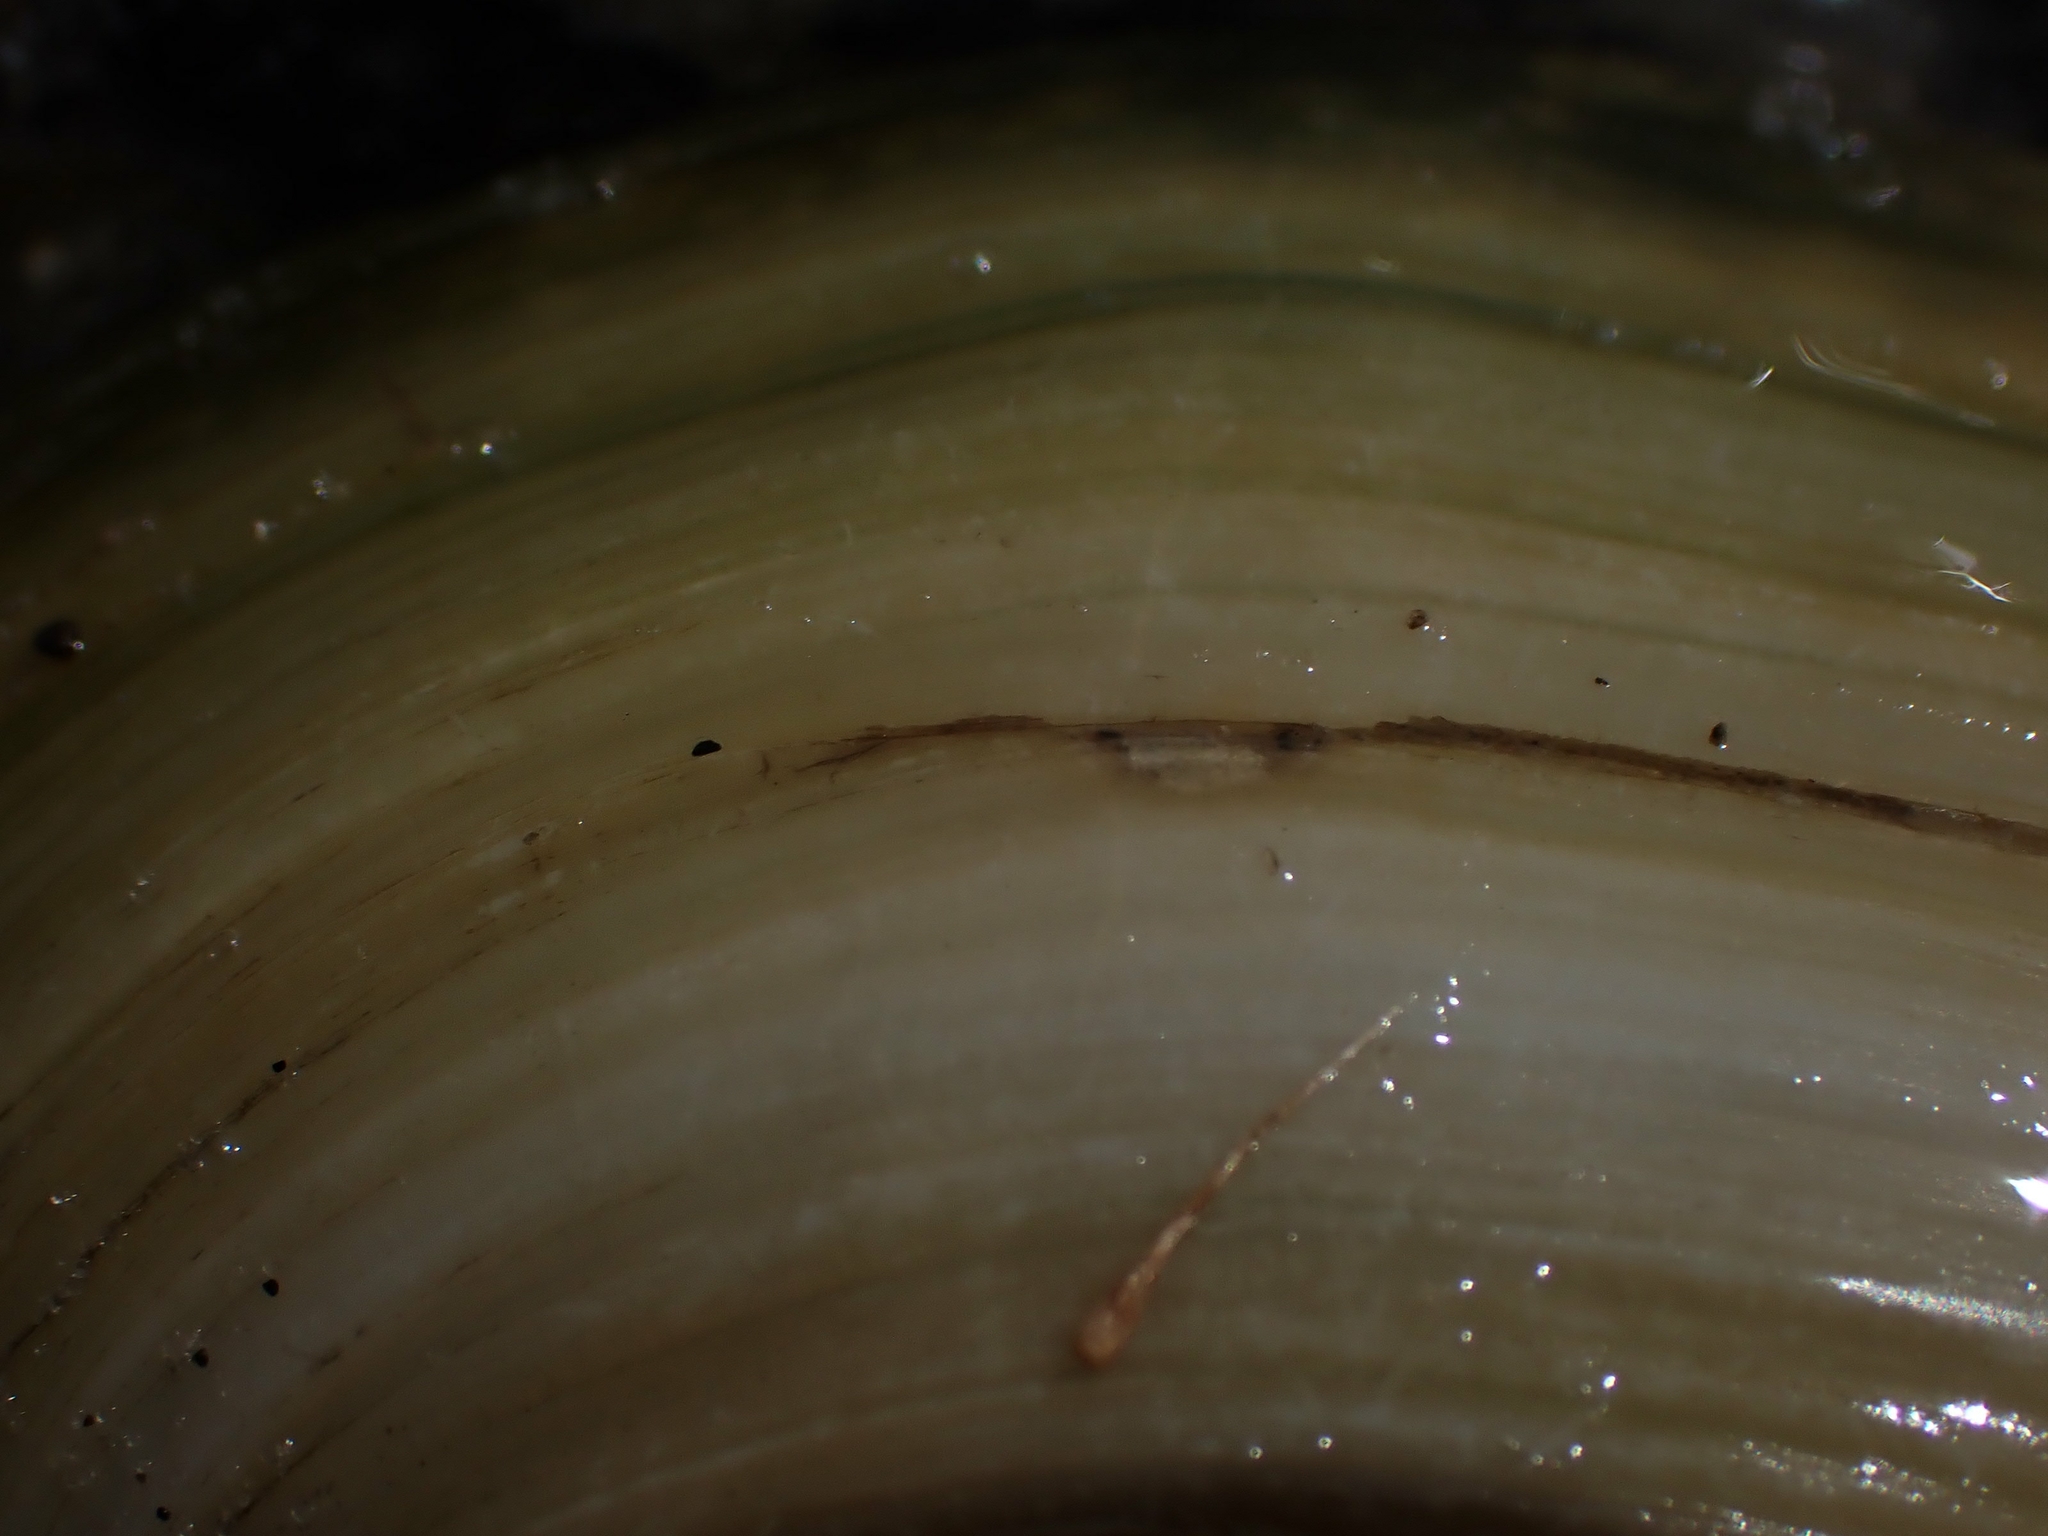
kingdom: Animalia
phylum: Mollusca
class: Bivalvia
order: Unionida
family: Unionidae
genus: Pyganodon
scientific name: Pyganodon grandis
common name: Giant floater
